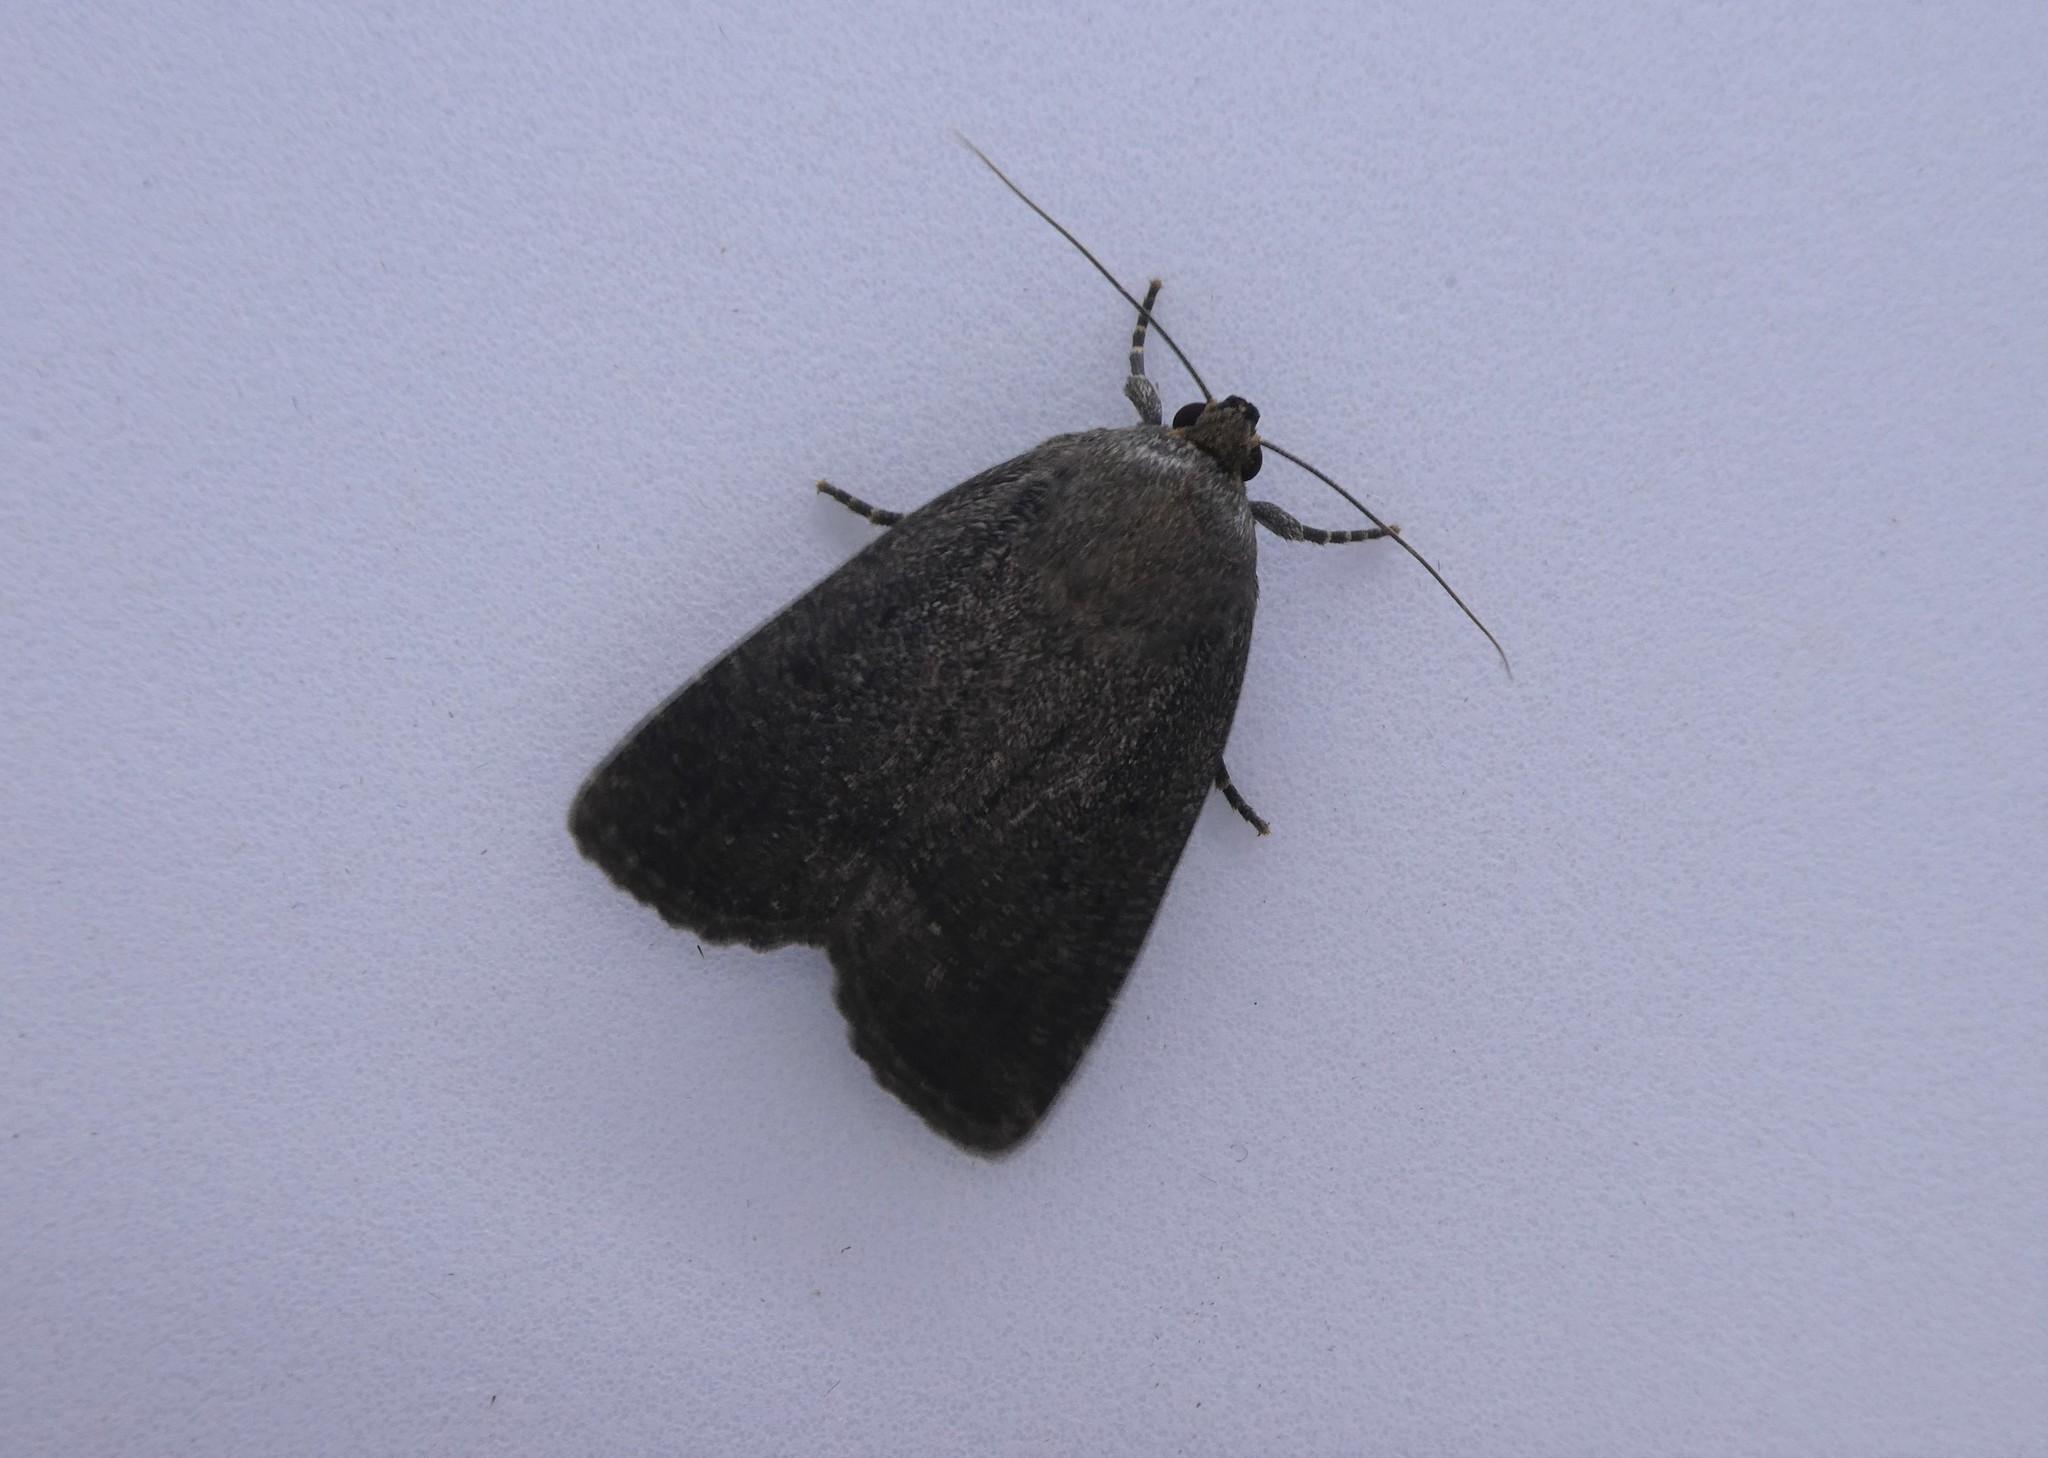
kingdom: Animalia
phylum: Arthropoda
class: Insecta
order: Lepidoptera
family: Noctuidae
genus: Amphipyra
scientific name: Amphipyra tragopoginis
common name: Mouse moth
